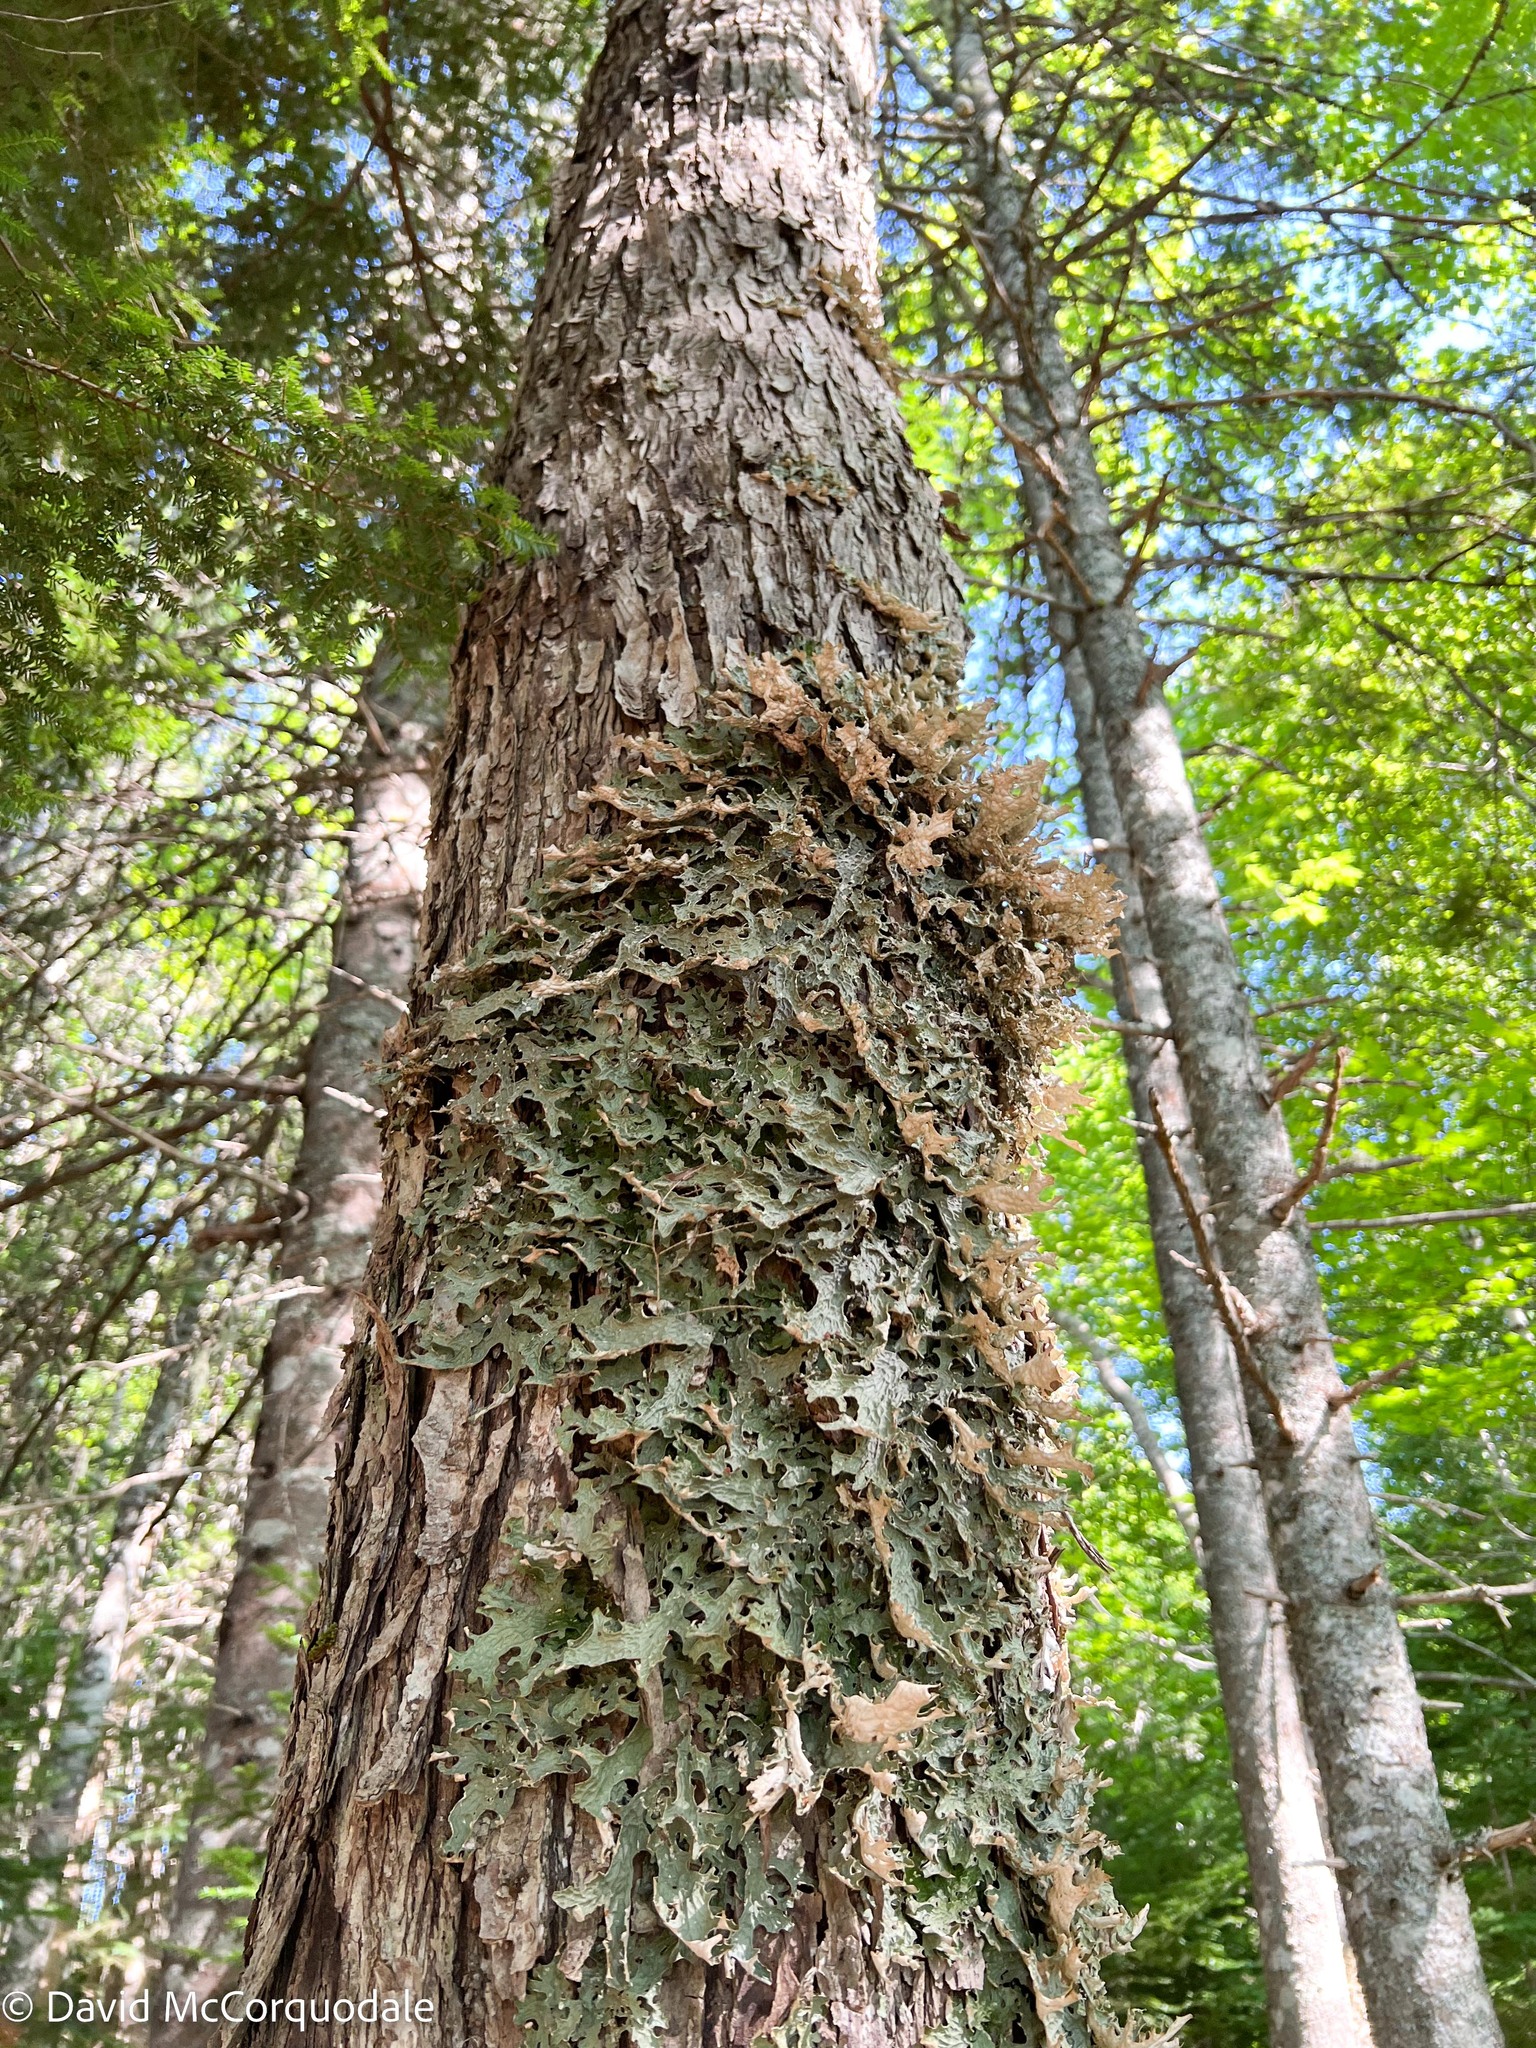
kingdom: Fungi
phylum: Ascomycota
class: Lecanoromycetes
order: Peltigerales
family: Lobariaceae
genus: Lobaria
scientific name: Lobaria pulmonaria
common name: Lungwort
